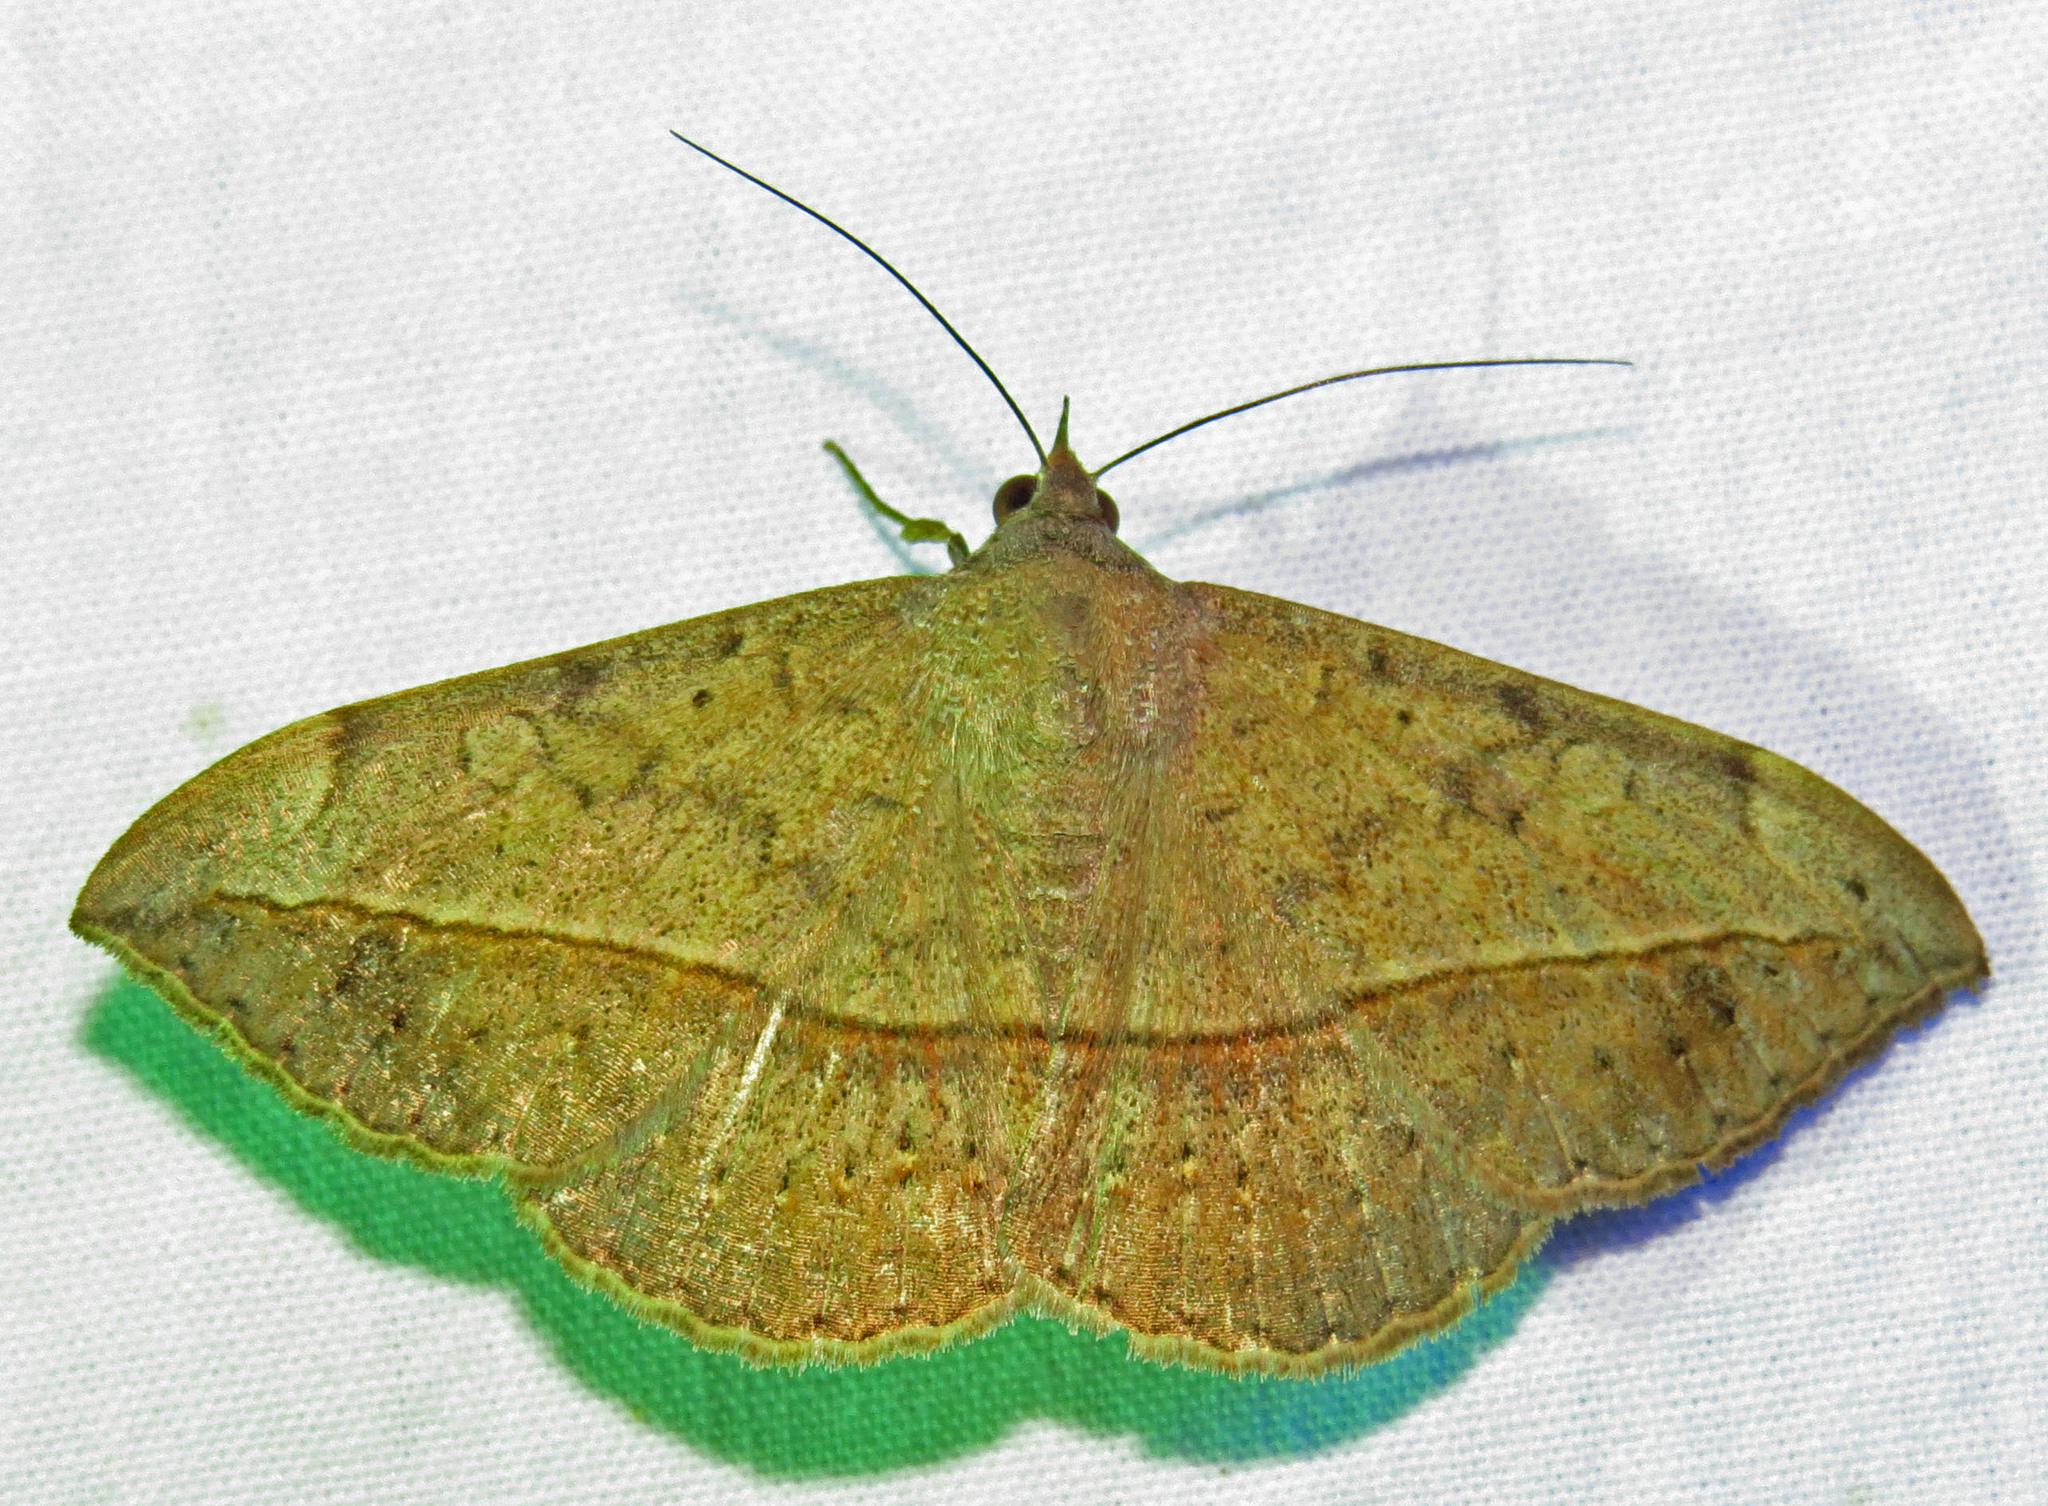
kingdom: Animalia
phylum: Arthropoda
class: Insecta
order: Lepidoptera
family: Erebidae
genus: Anticarsia
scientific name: Anticarsia gemmatalis
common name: Cutworm moth
